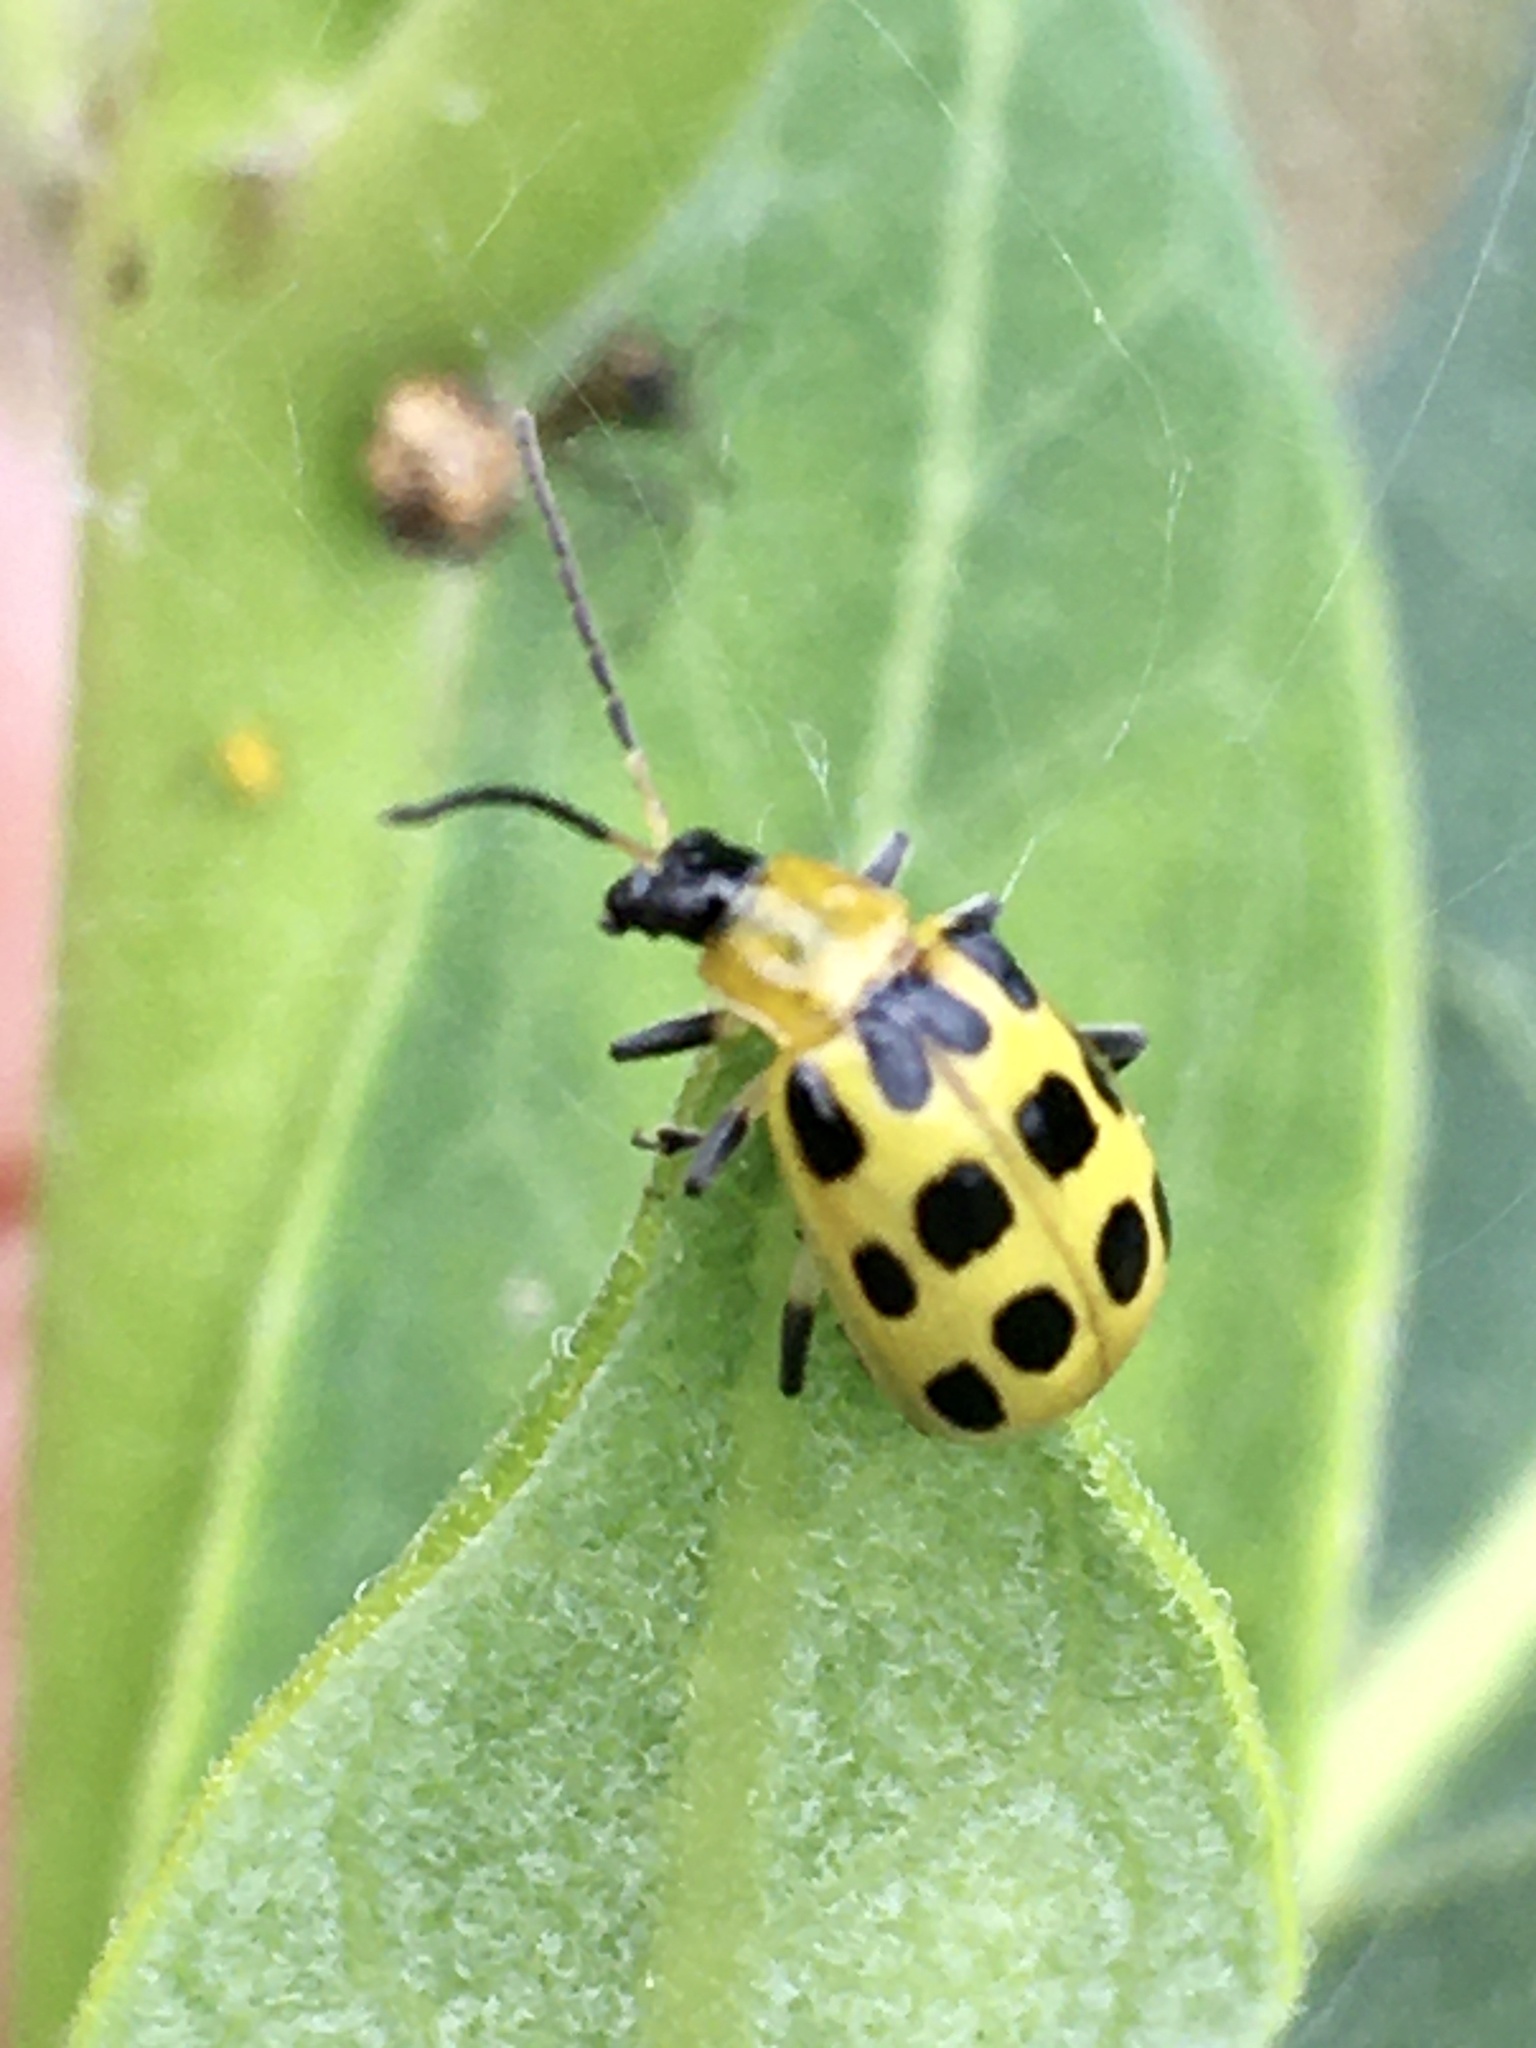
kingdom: Animalia
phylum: Arthropoda
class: Insecta
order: Coleoptera
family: Chrysomelidae
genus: Diabrotica
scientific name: Diabrotica undecimpunctata
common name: Spotted cucumber beetle
